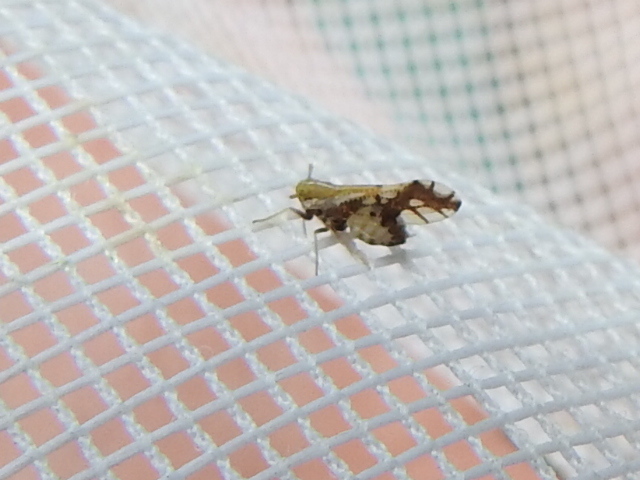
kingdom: Animalia
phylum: Arthropoda
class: Insecta
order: Hemiptera
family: Delphacidae
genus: Liburniella
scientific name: Liburniella ornata
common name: Ornate planthopper
